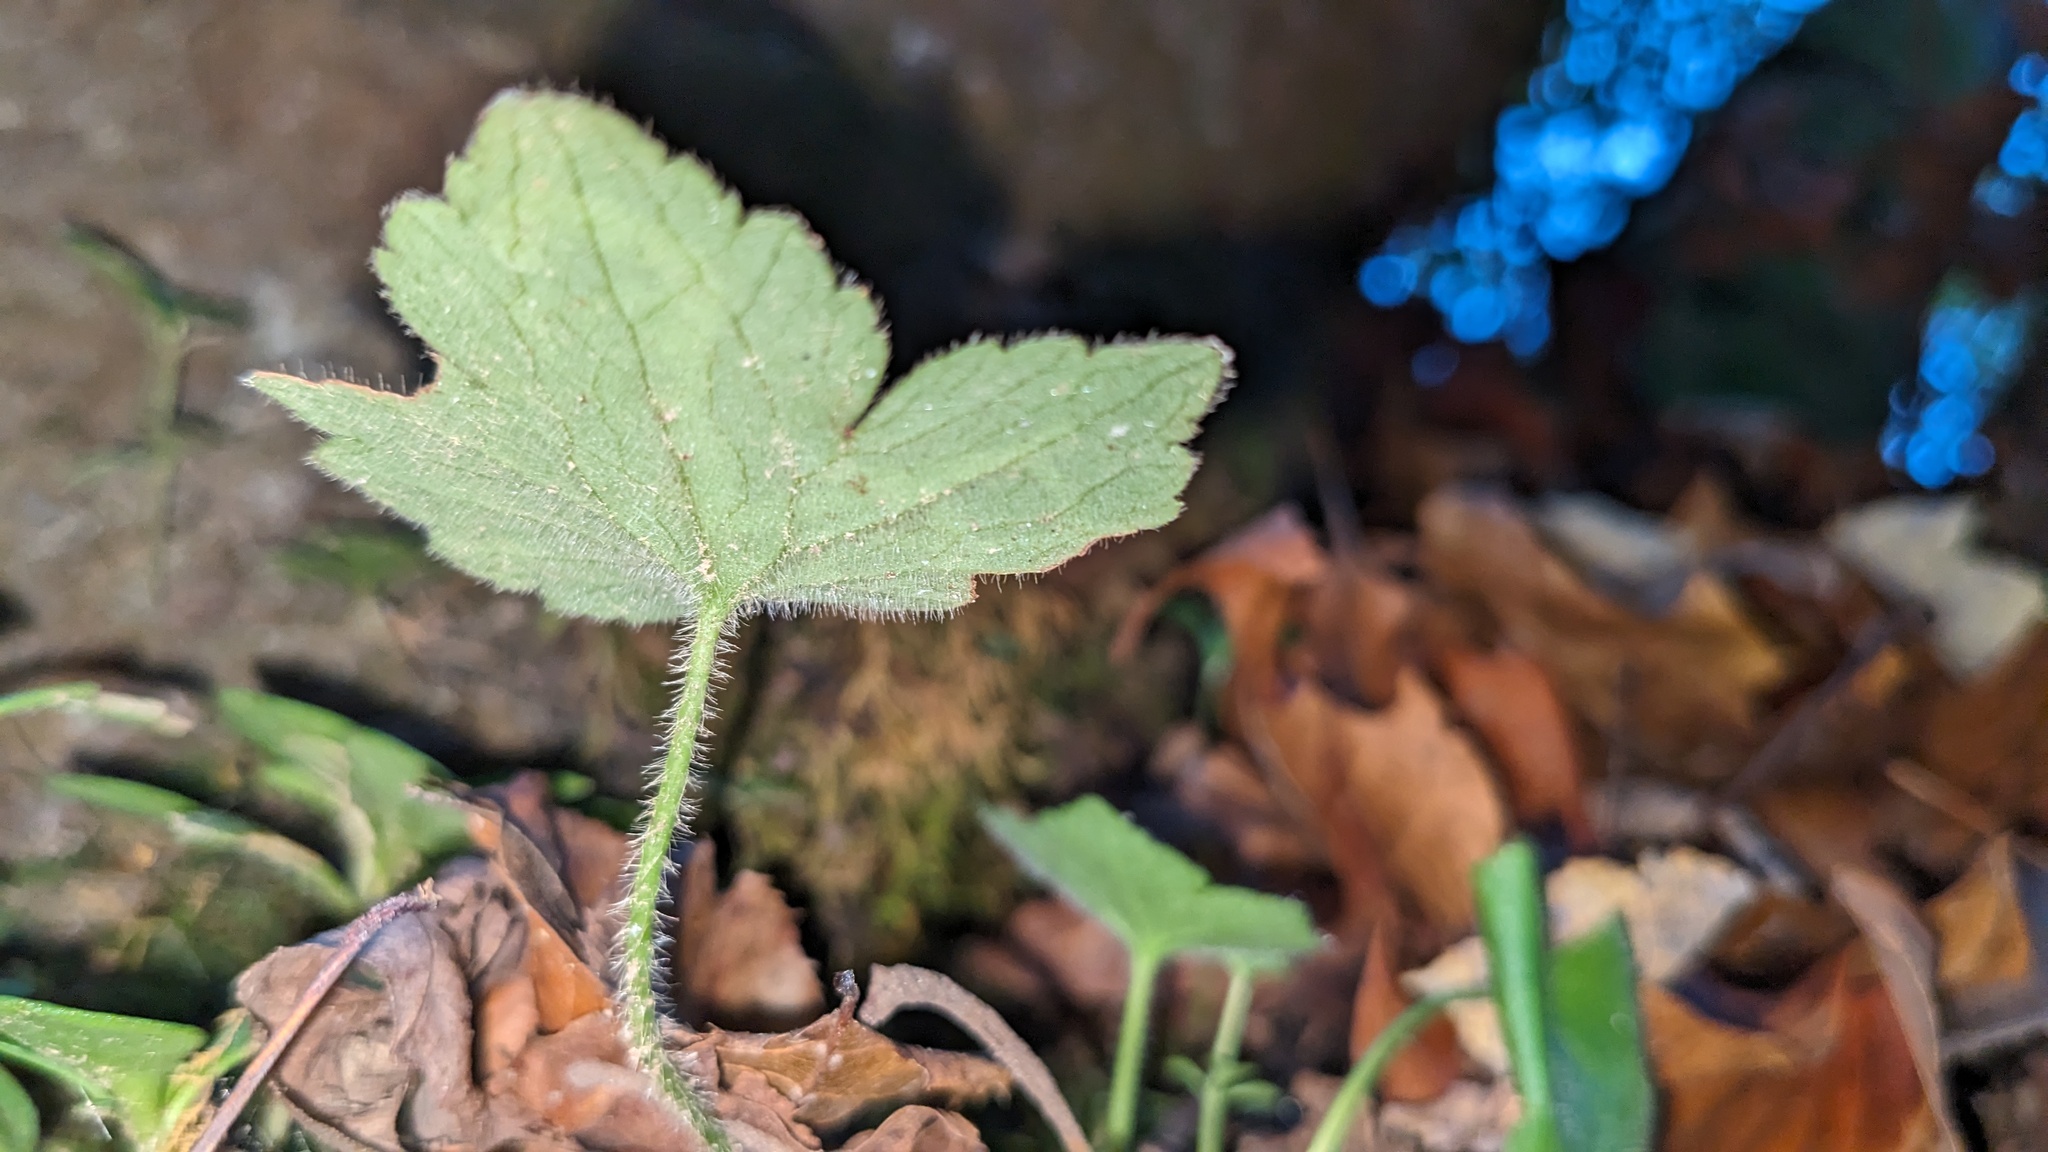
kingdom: Animalia
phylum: Arthropoda
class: Insecta
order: Diptera
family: Agromyzidae
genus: Phytomyza
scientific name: Phytomyza loewii
